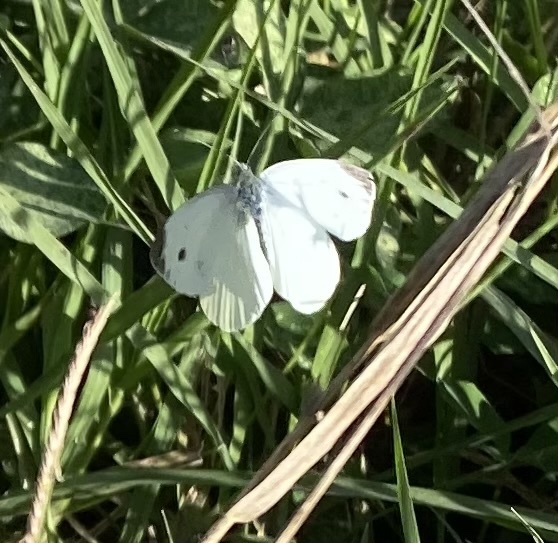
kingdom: Animalia
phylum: Arthropoda
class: Insecta
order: Lepidoptera
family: Pieridae
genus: Pieris
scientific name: Pieris rapae
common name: Small white
